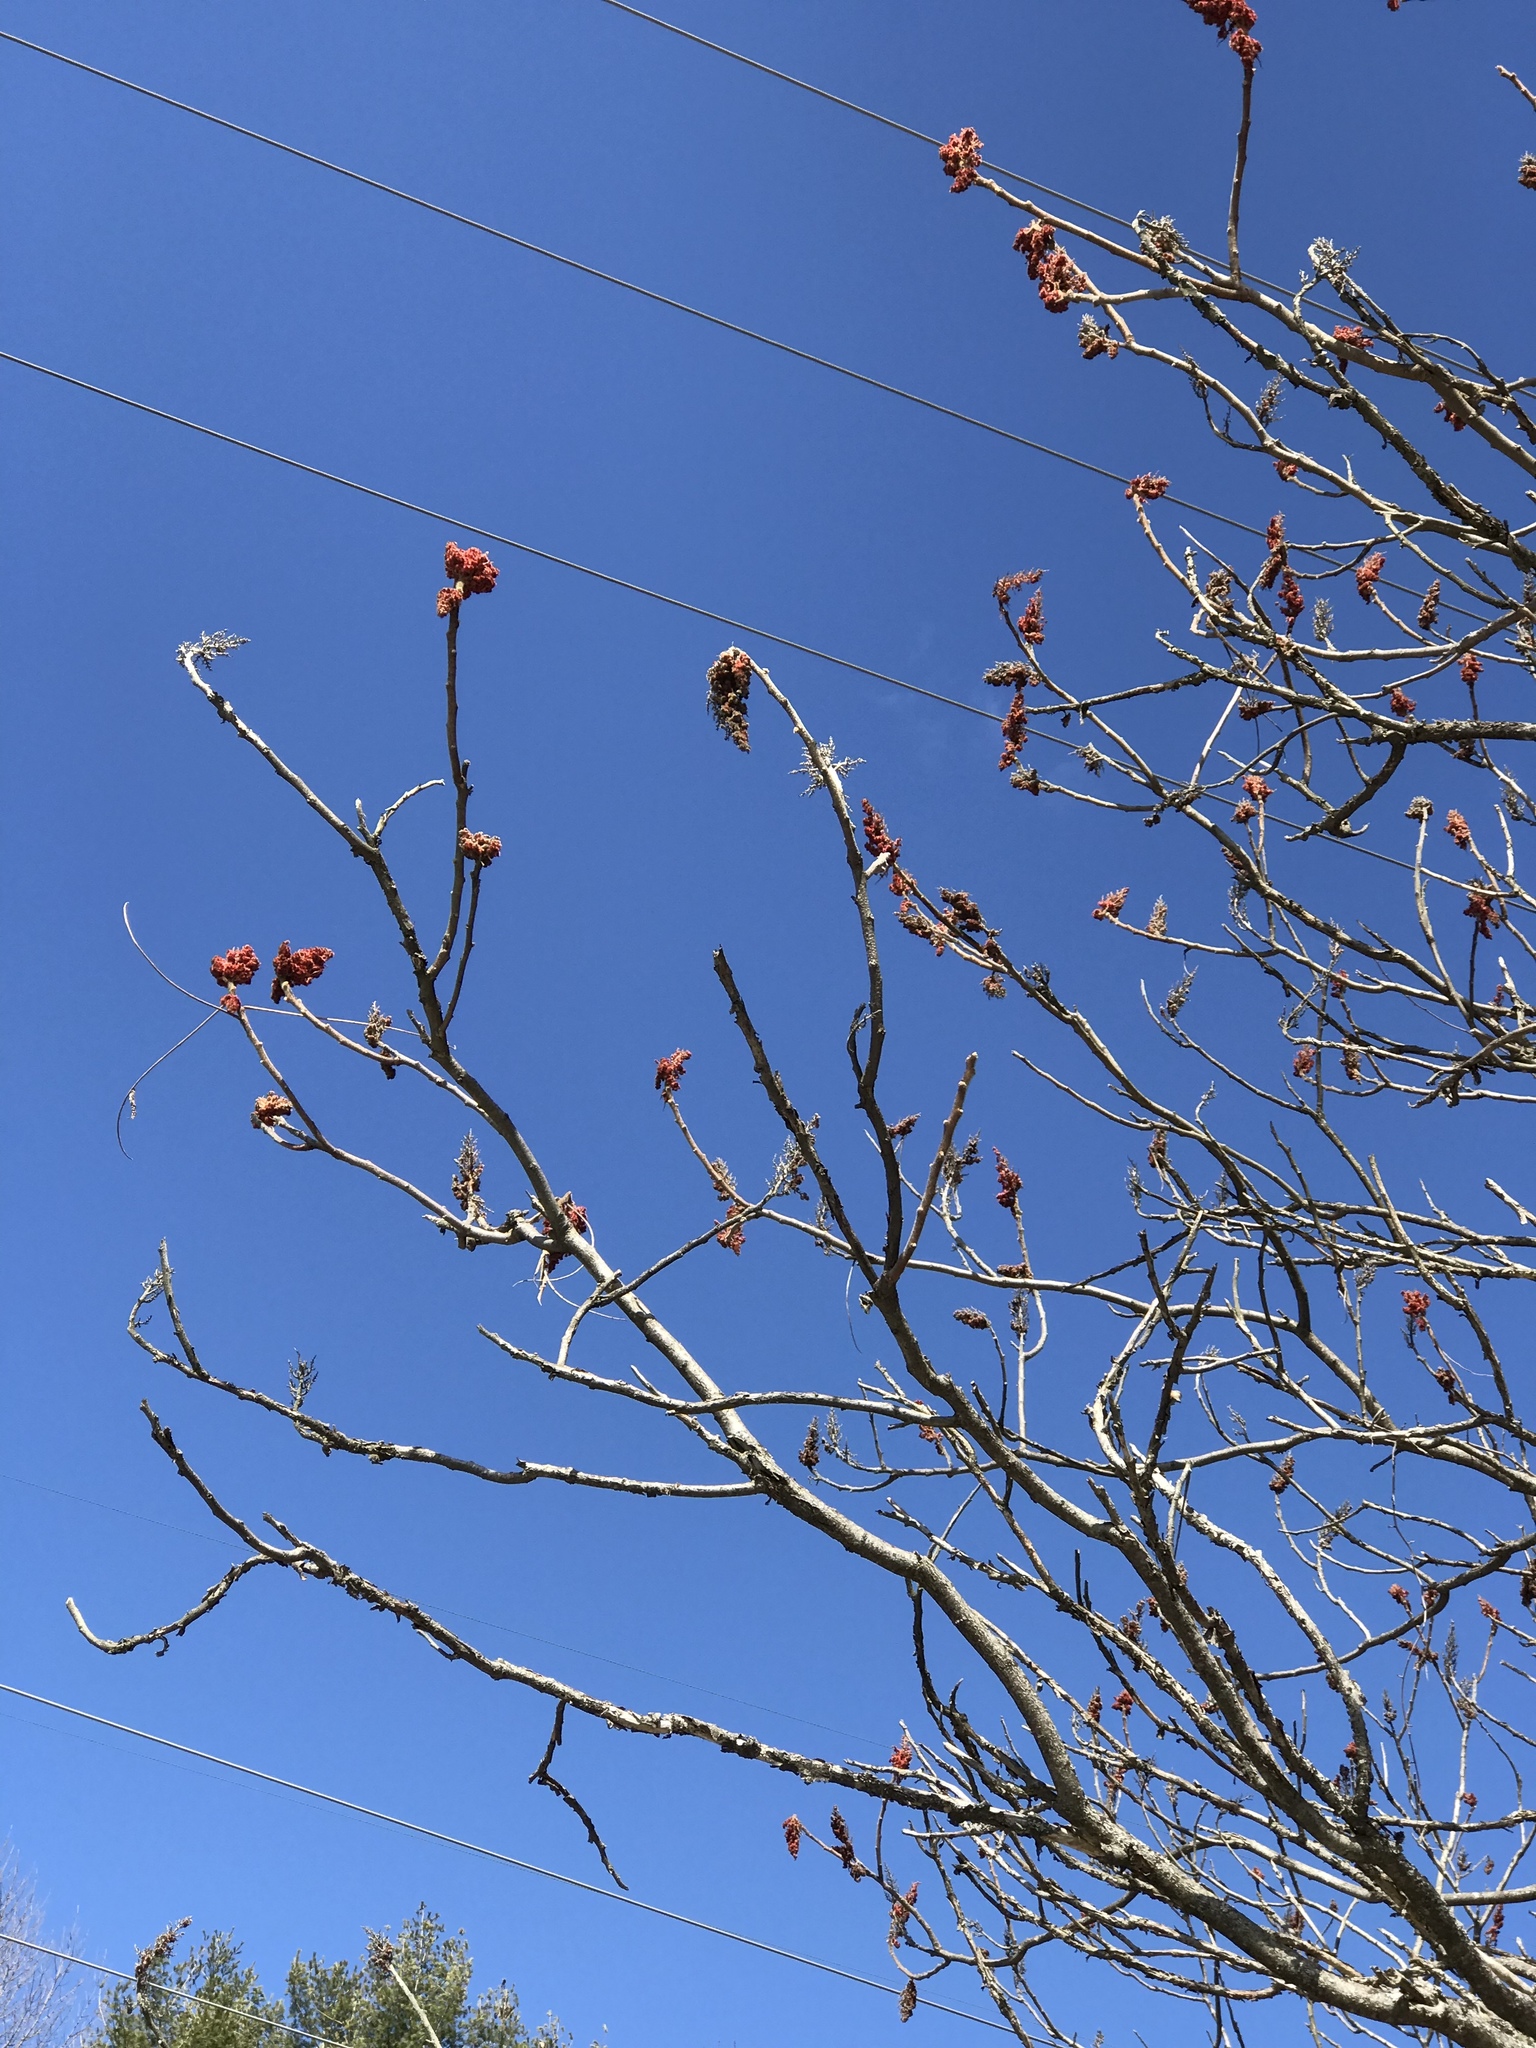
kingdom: Plantae
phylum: Tracheophyta
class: Magnoliopsida
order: Sapindales
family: Anacardiaceae
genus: Rhus
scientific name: Rhus typhina
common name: Staghorn sumac
